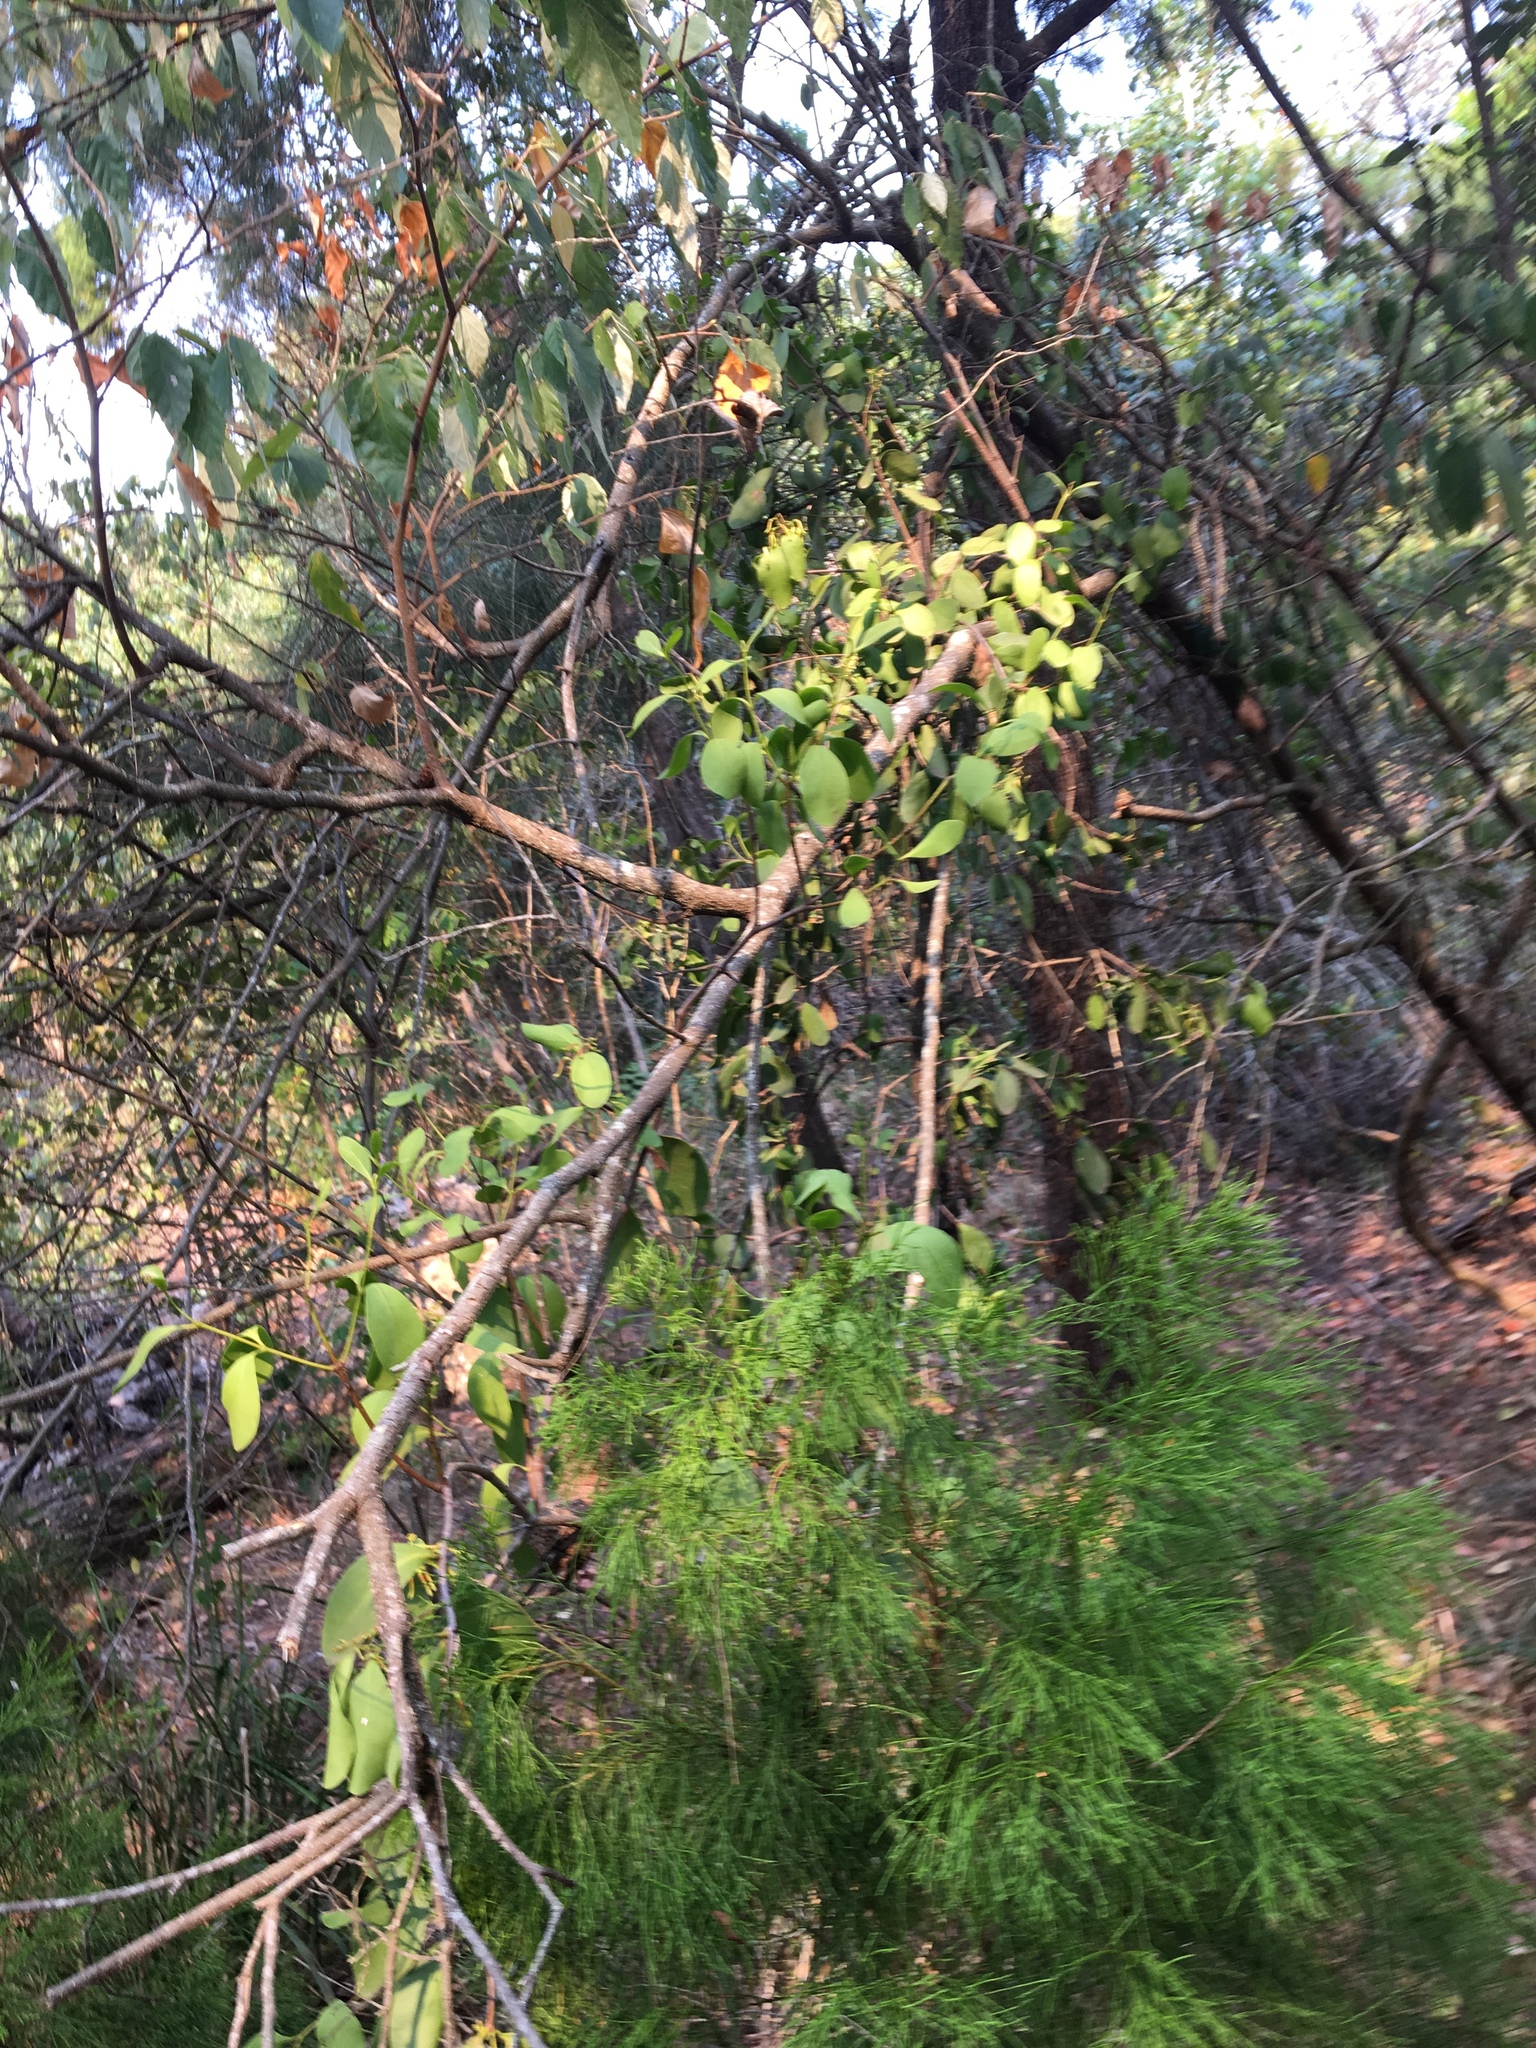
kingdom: Plantae
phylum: Tracheophyta
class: Magnoliopsida
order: Santalales
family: Loranthaceae
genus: Muellerina
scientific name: Muellerina celastroides
